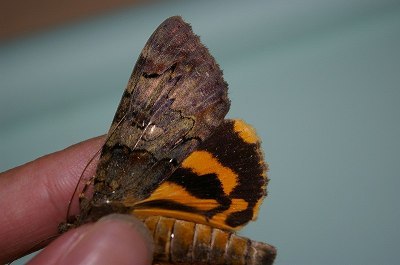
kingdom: Animalia
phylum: Arthropoda
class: Insecta
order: Lepidoptera
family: Erebidae
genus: Catocala
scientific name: Catocala patala
